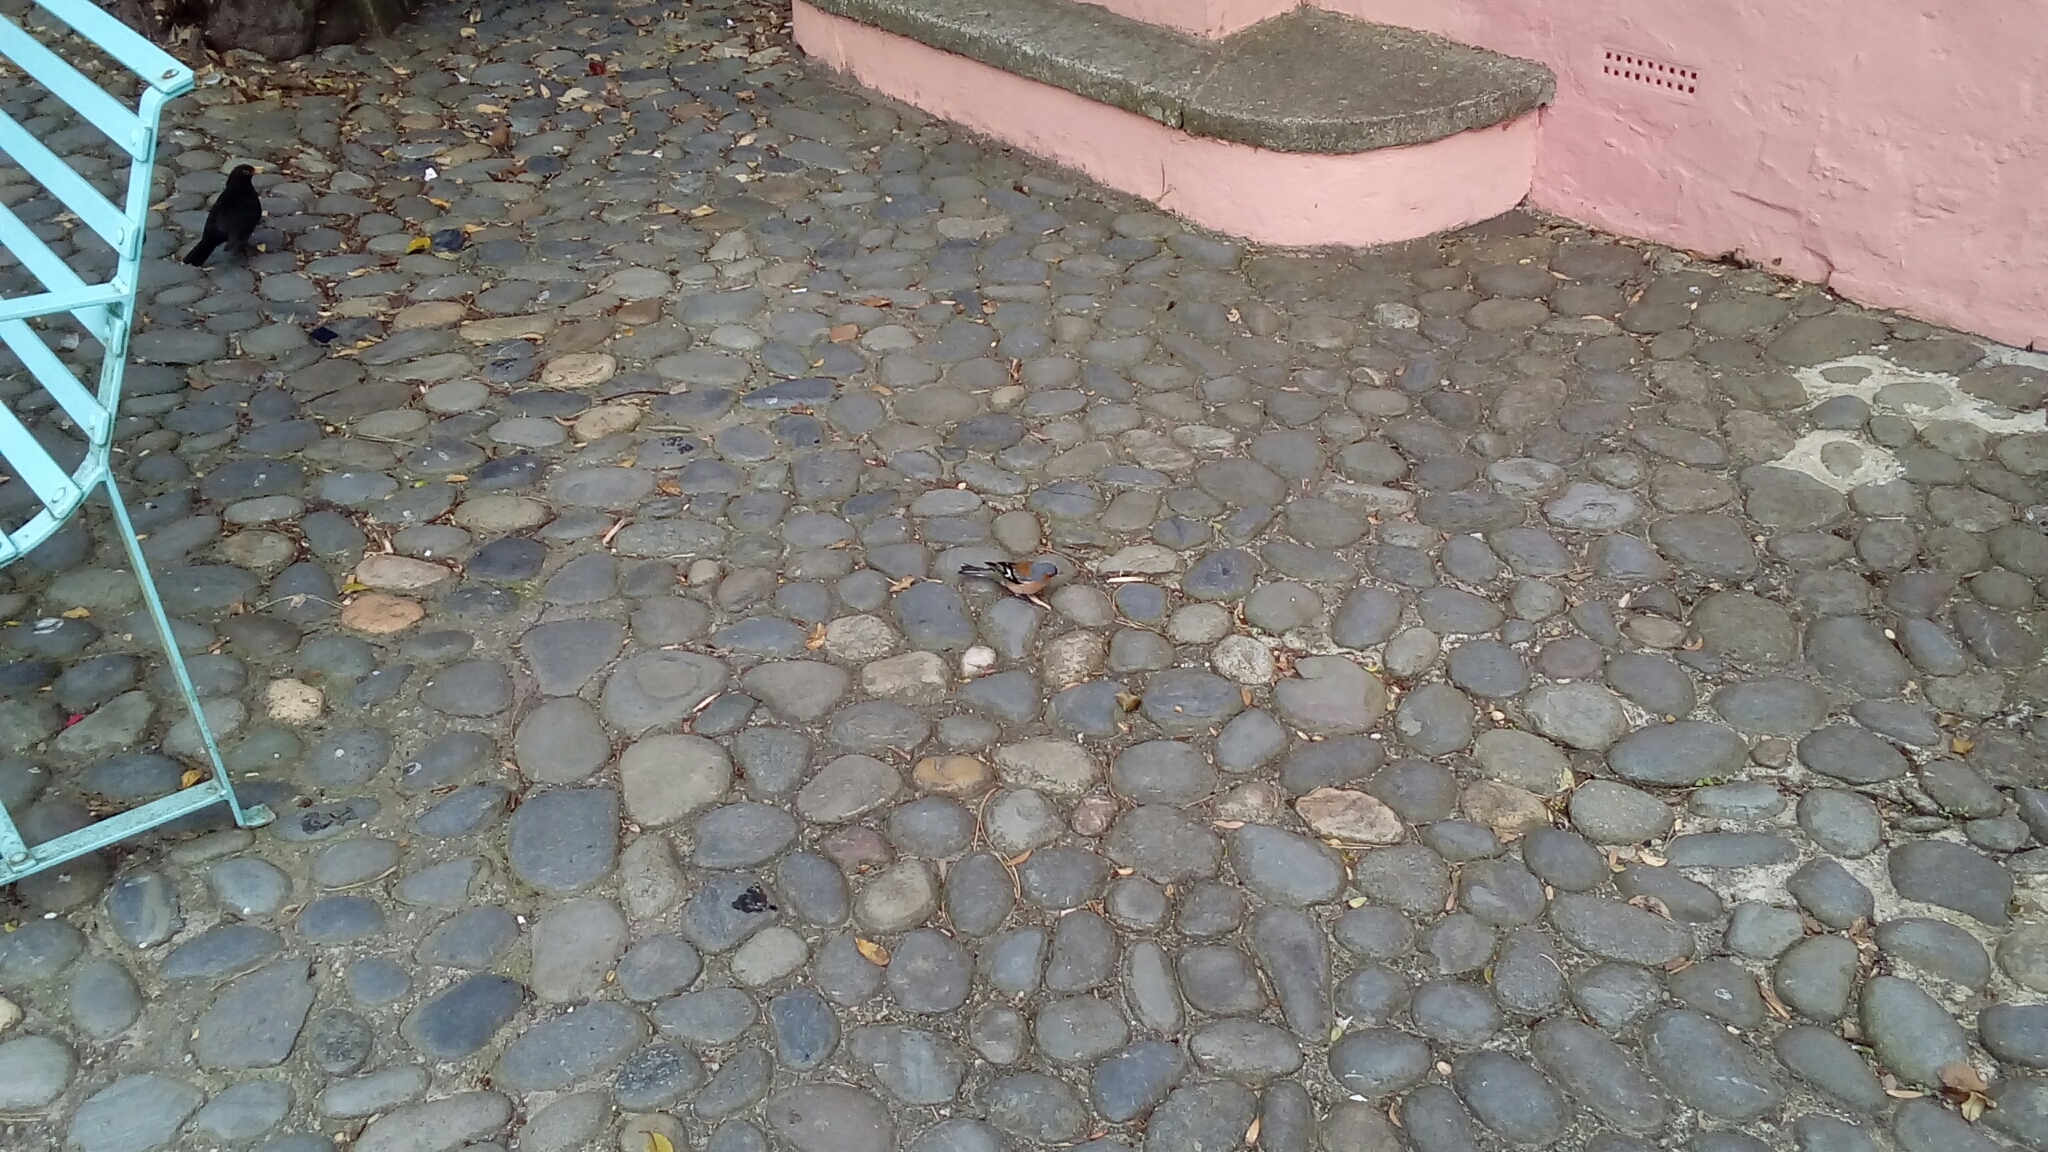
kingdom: Animalia
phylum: Chordata
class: Aves
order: Passeriformes
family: Fringillidae
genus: Fringilla
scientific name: Fringilla coelebs
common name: Common chaffinch
